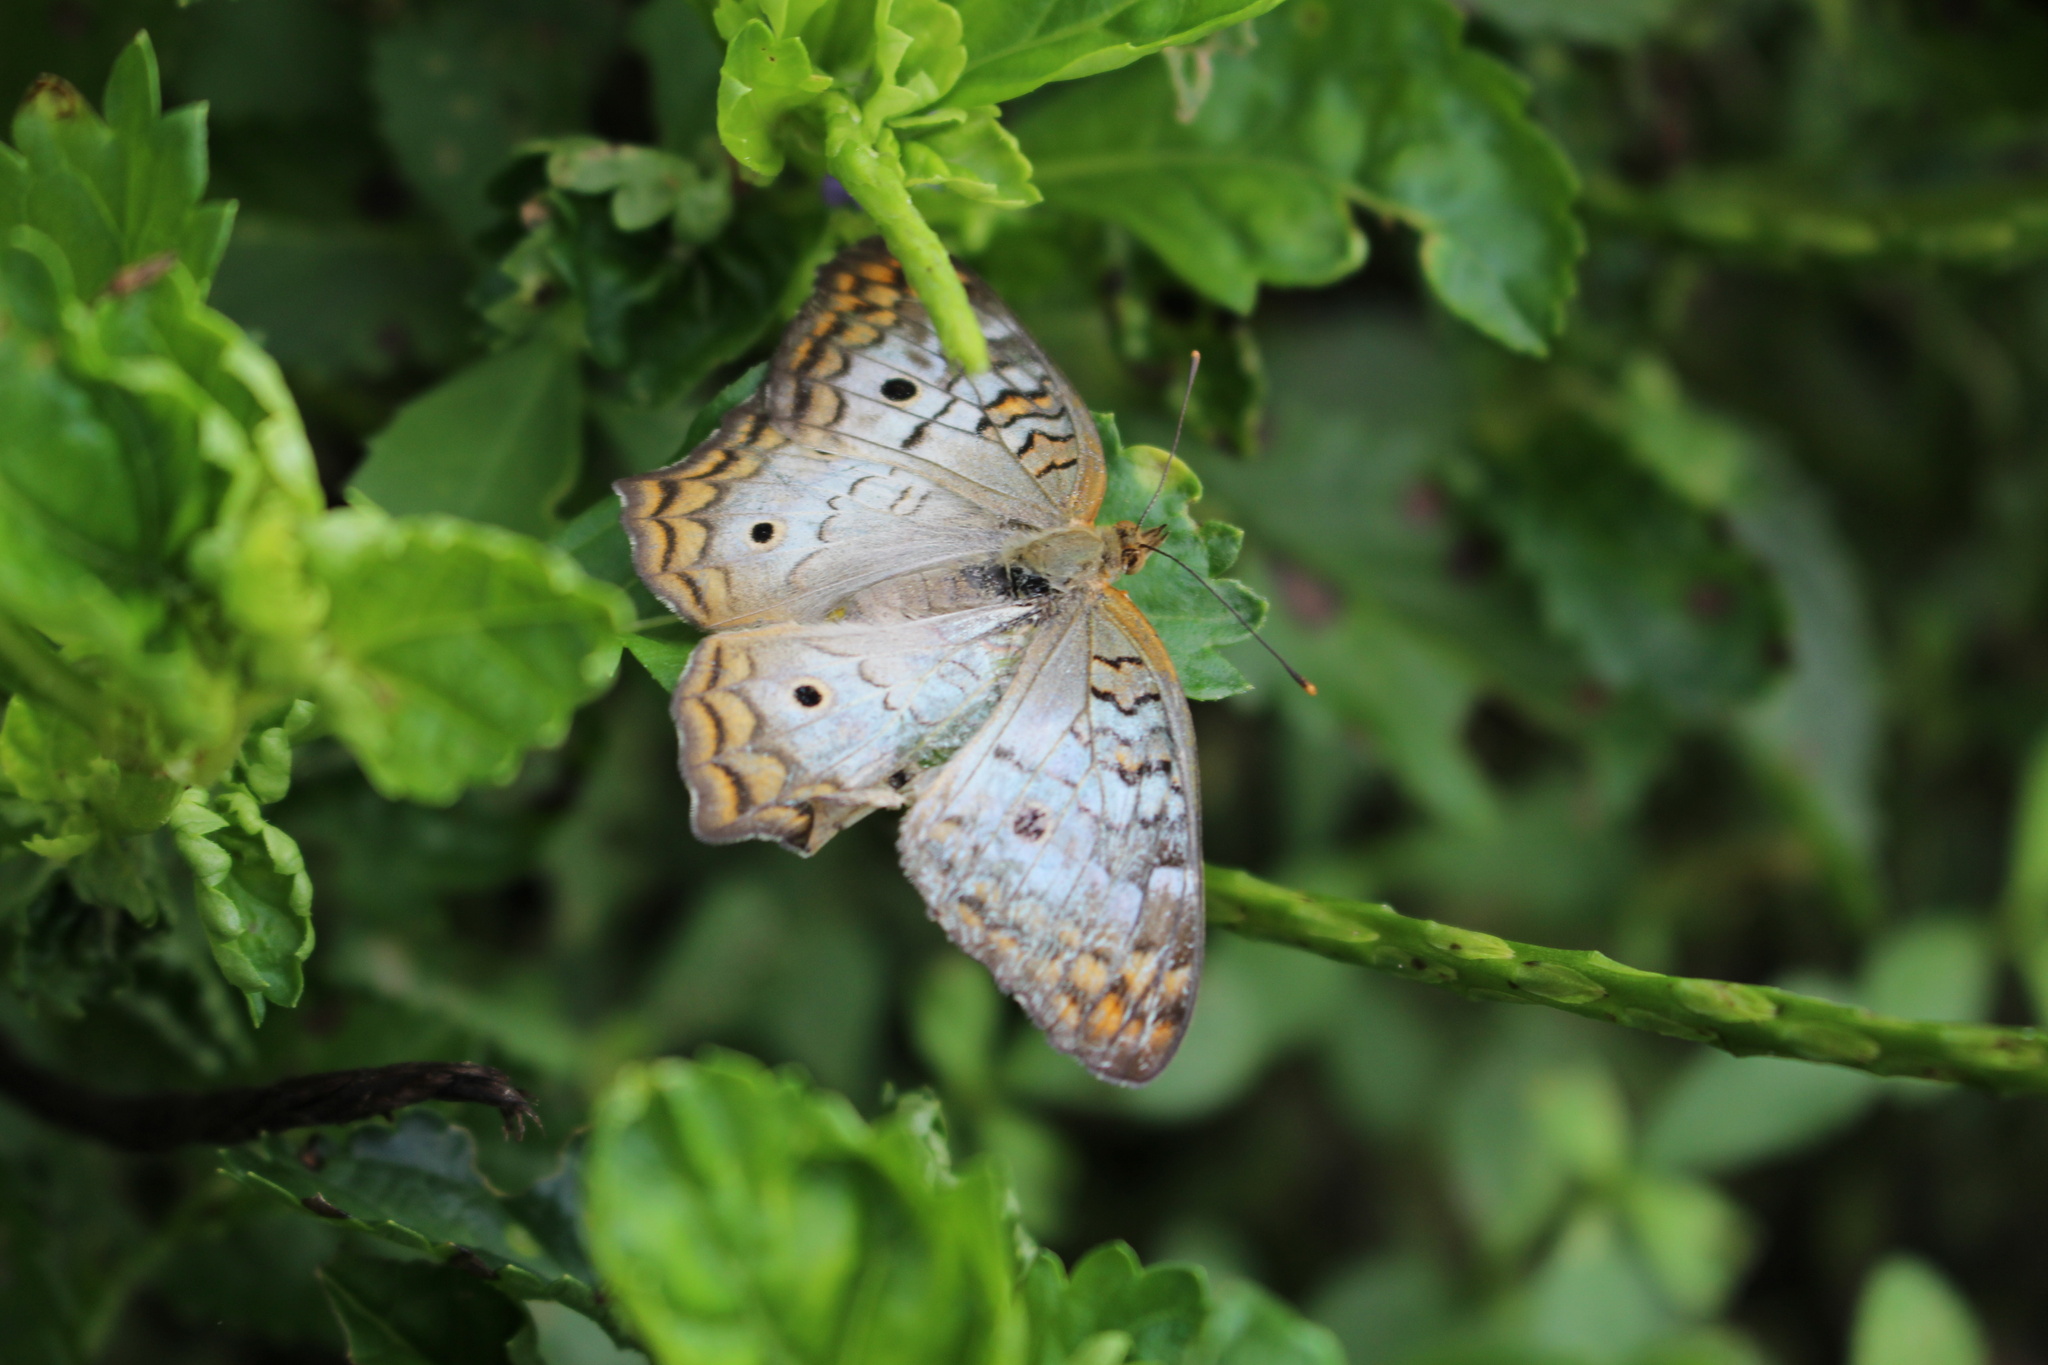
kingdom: Animalia
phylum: Arthropoda
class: Insecta
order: Lepidoptera
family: Nymphalidae
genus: Anartia
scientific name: Anartia jatrophae
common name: White peacock
